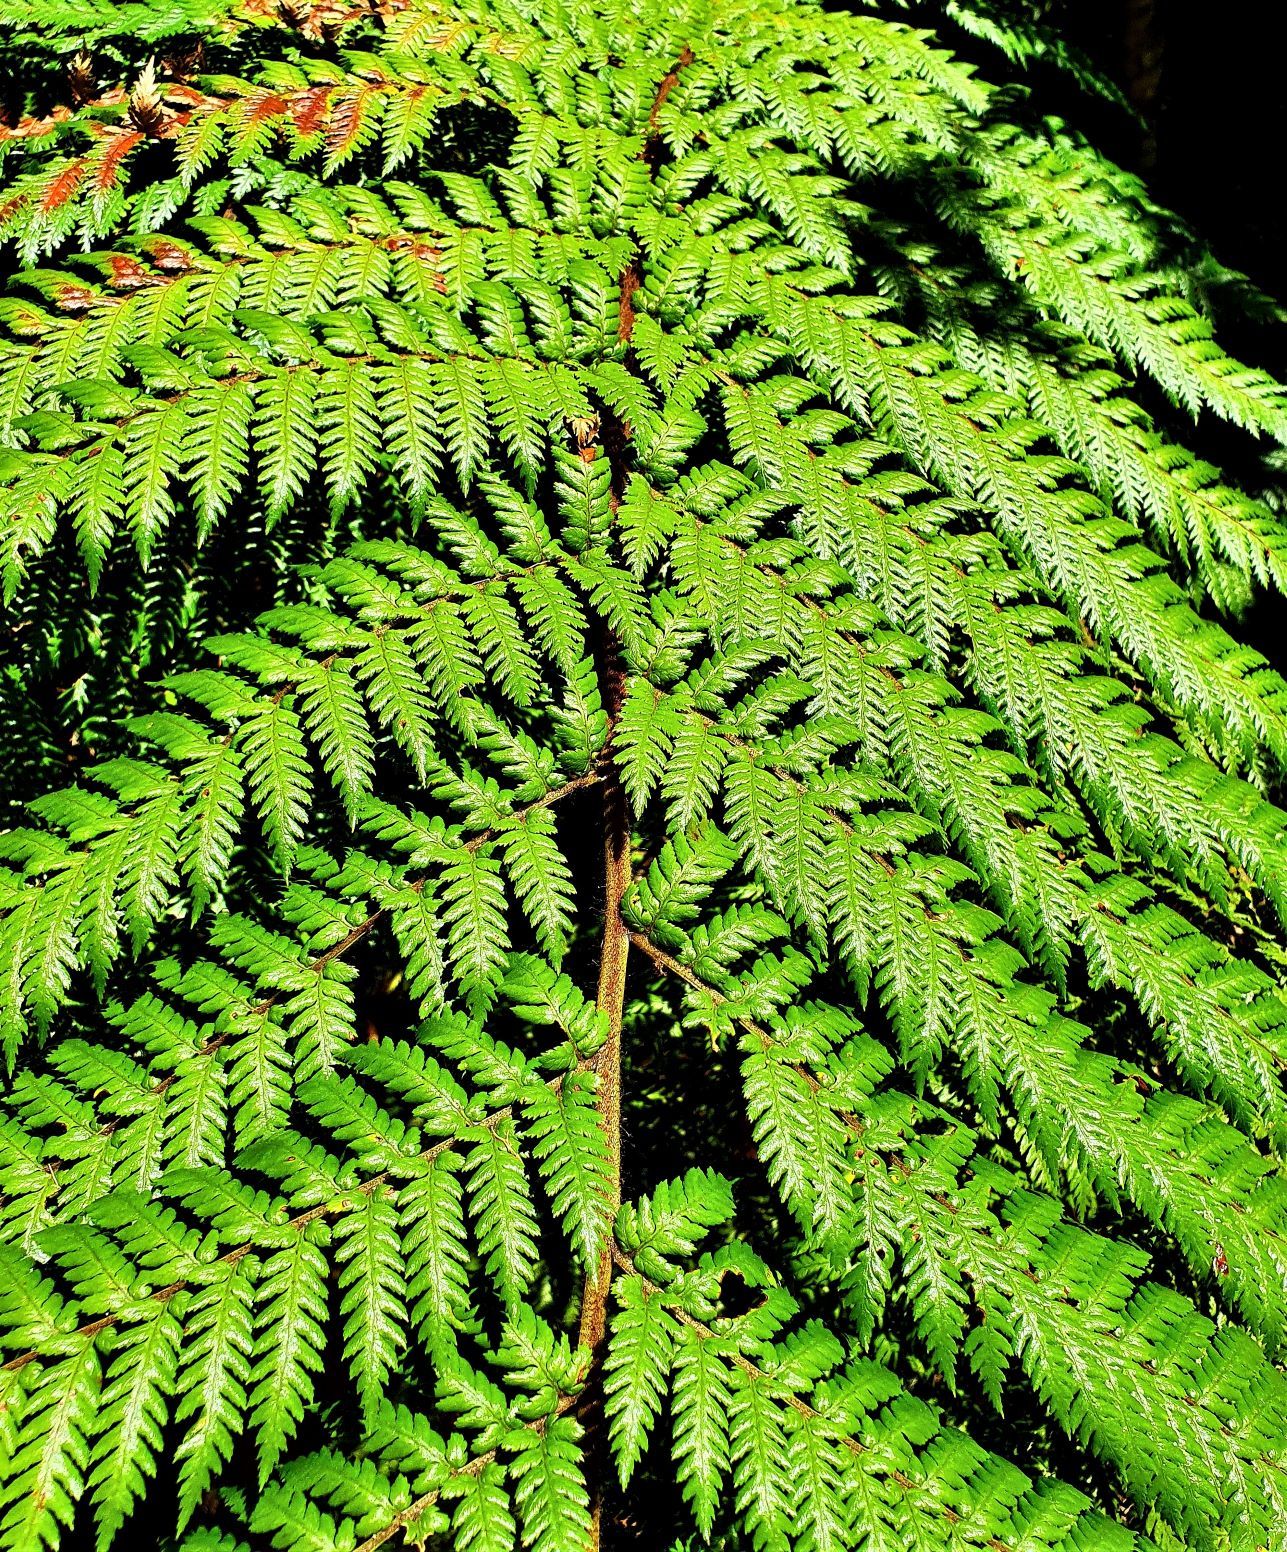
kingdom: Plantae
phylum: Tracheophyta
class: Polypodiopsida
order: Cyatheales
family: Dicksoniaceae
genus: Dicksonia
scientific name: Dicksonia squarrosa
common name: Hard treefern
